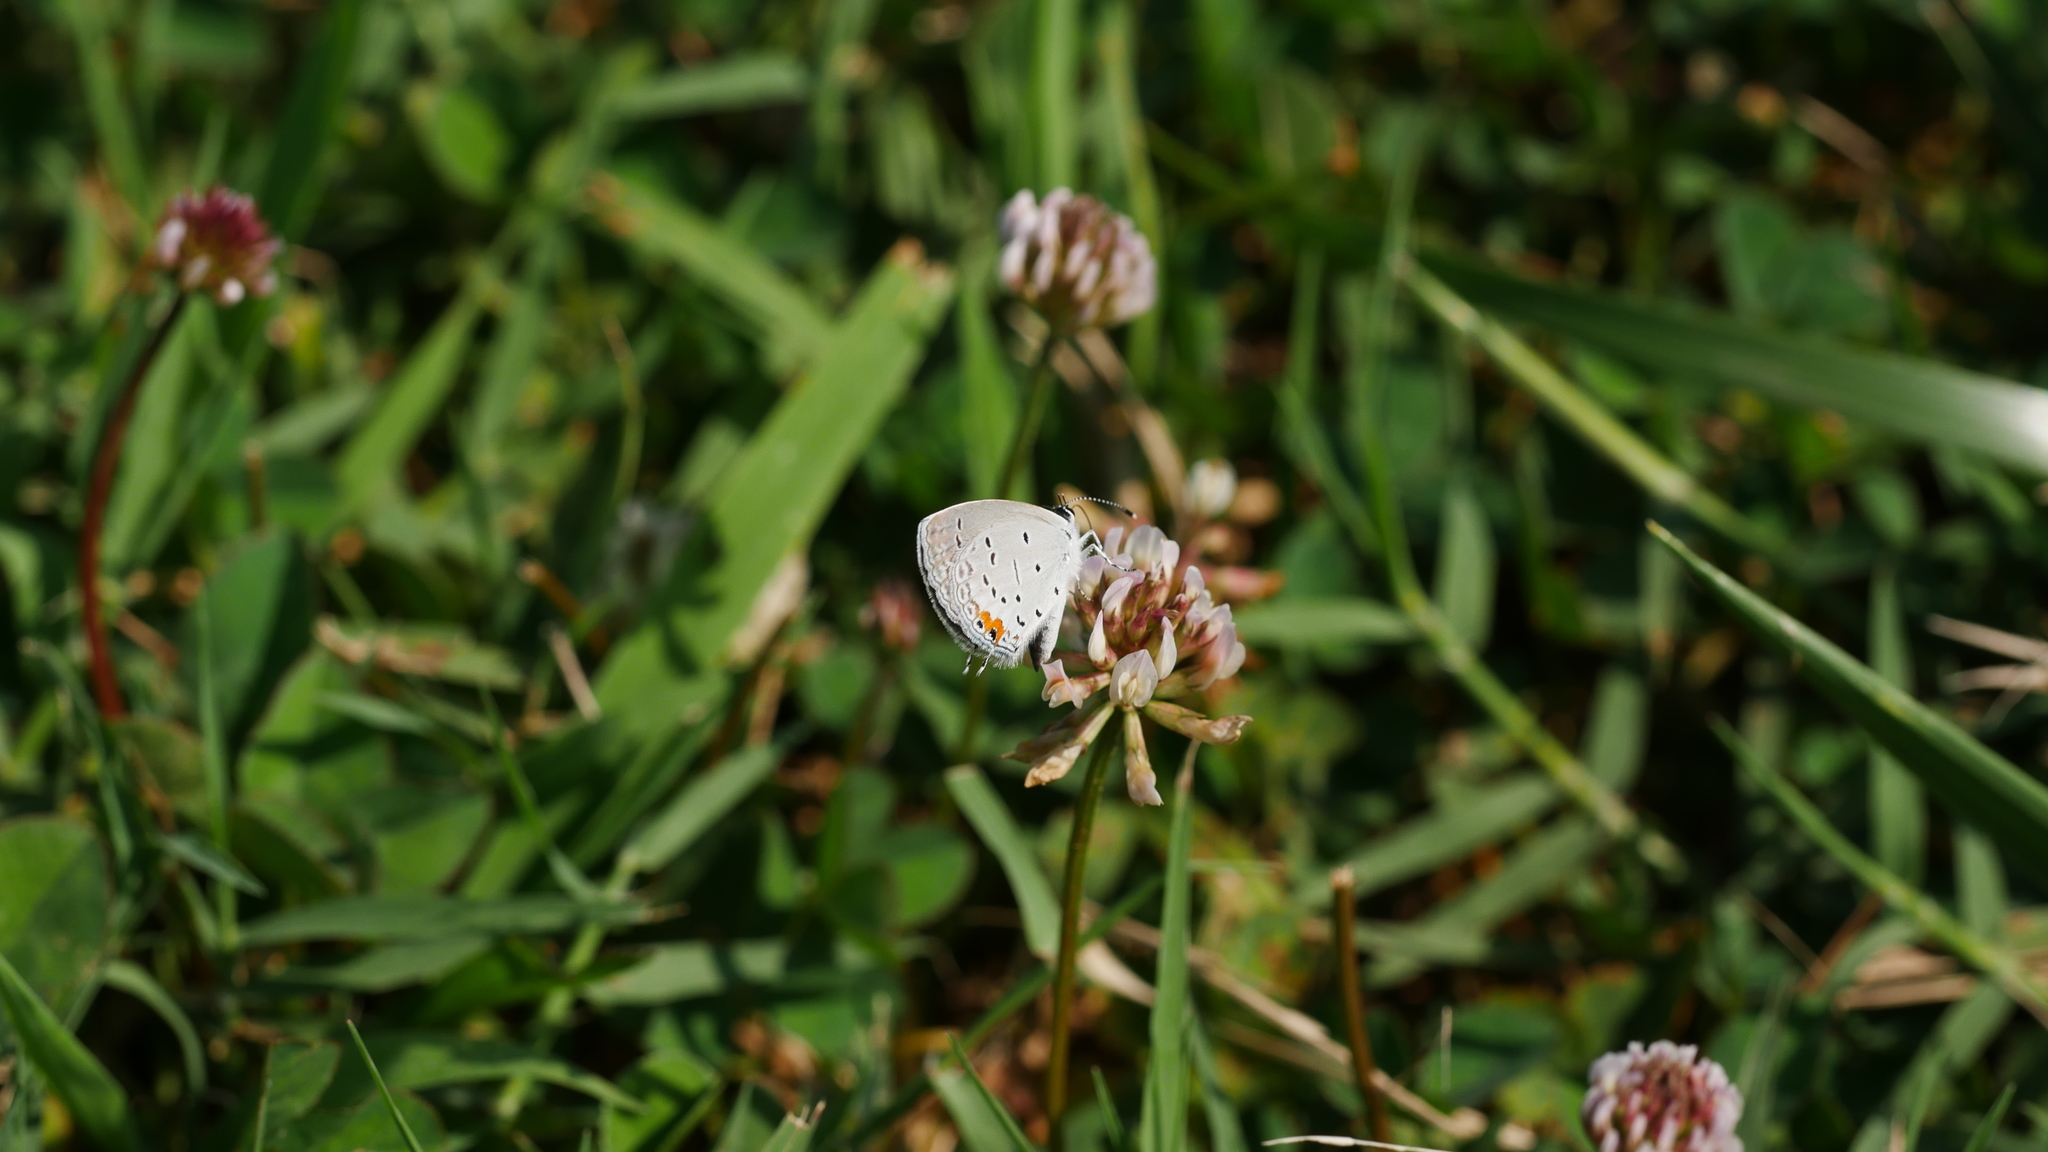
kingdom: Animalia
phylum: Arthropoda
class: Insecta
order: Lepidoptera
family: Lycaenidae
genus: Elkalyce
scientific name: Elkalyce comyntas
